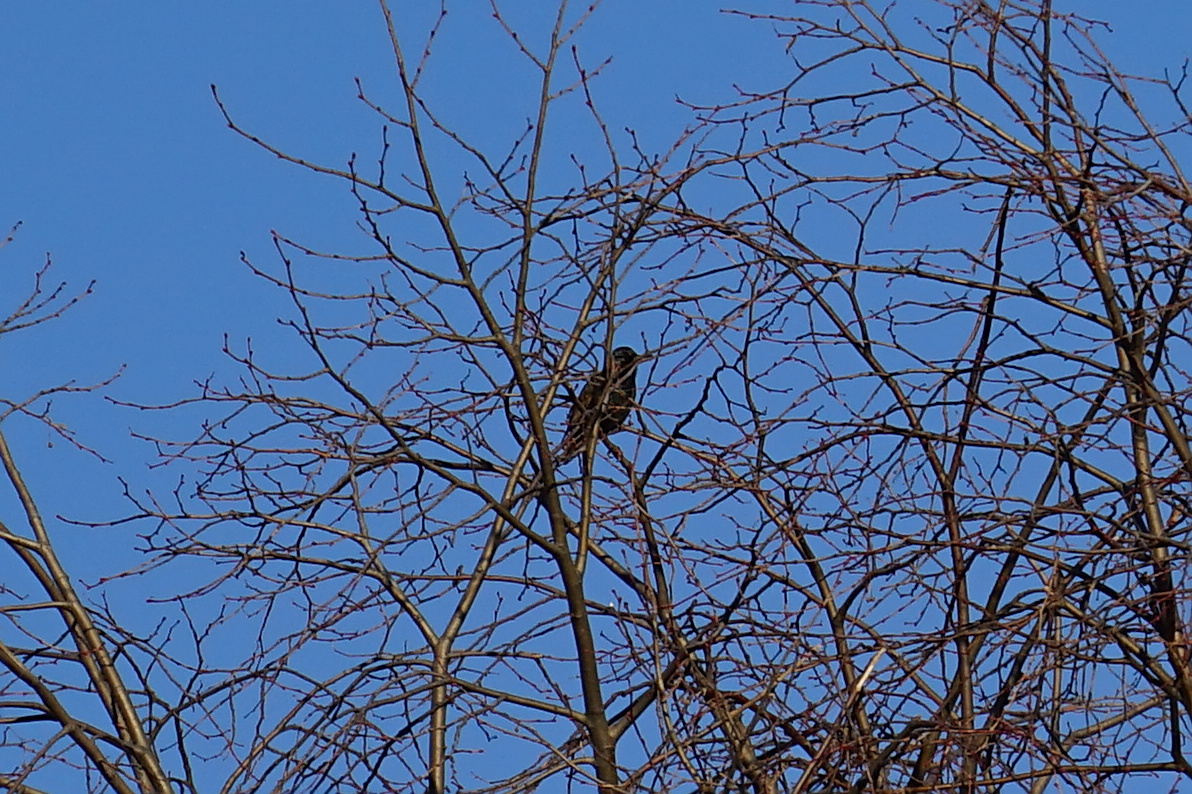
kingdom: Animalia
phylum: Chordata
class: Aves
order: Passeriformes
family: Sturnidae
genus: Sturnus
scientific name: Sturnus vulgaris
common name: Common starling
